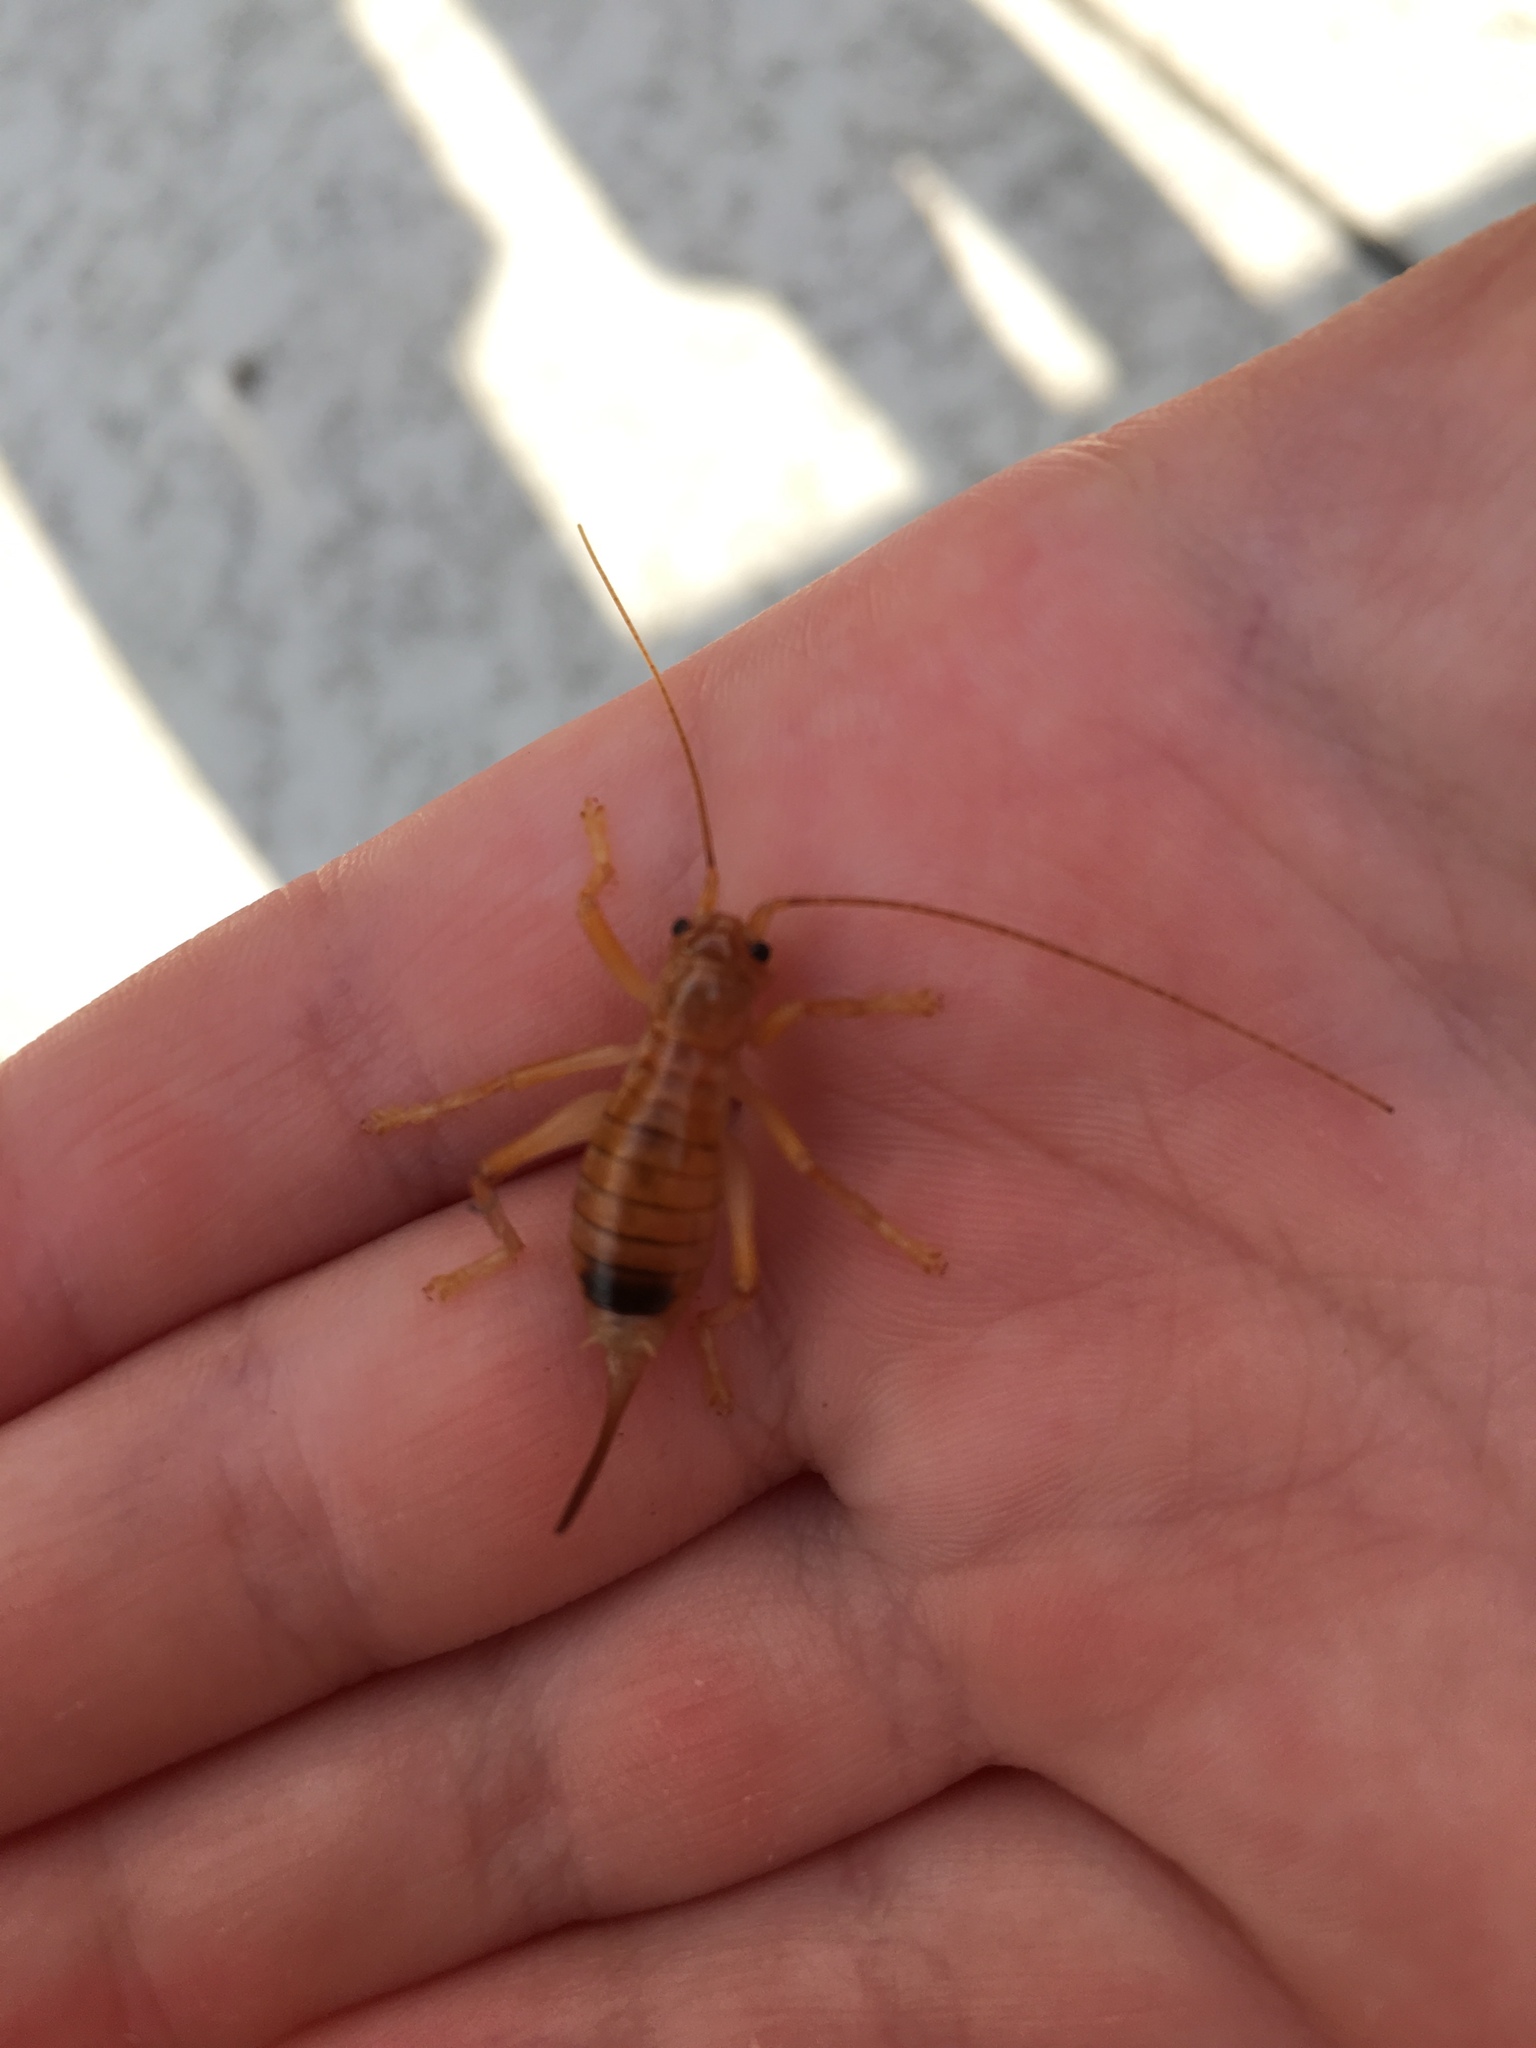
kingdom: Animalia
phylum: Arthropoda
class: Insecta
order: Orthoptera
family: Gryllacrididae
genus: Camptonotus
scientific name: Camptonotus carolinensis
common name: Carolina leaf-roller
